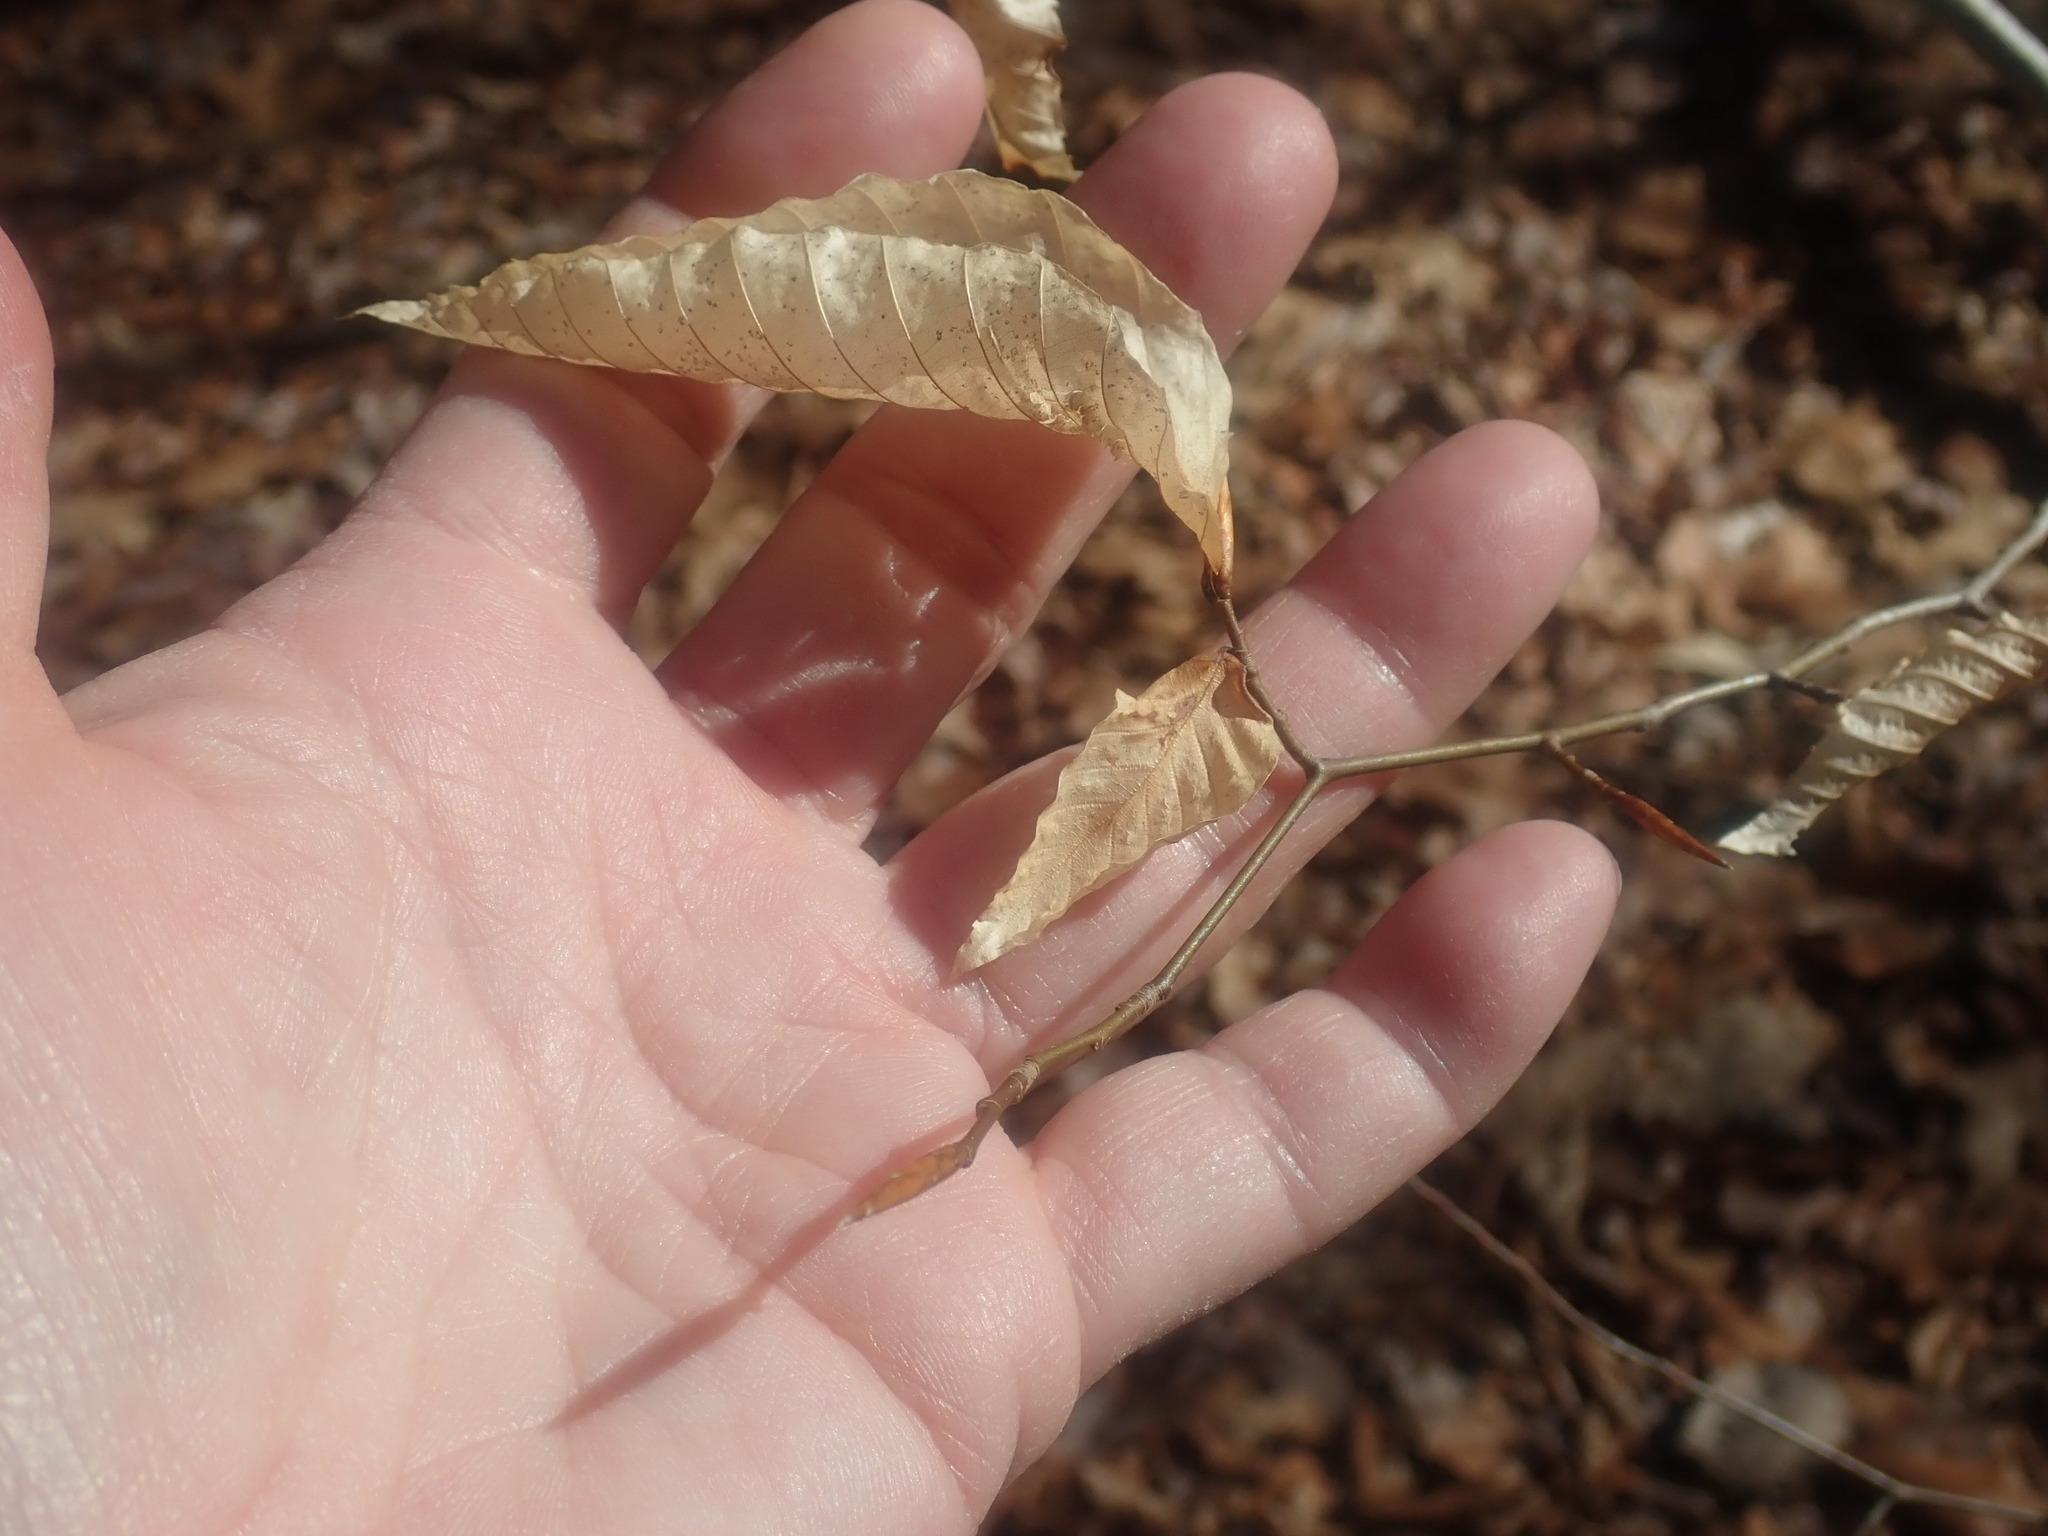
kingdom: Plantae
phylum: Tracheophyta
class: Magnoliopsida
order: Fagales
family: Fagaceae
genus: Fagus
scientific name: Fagus grandifolia
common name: American beech
